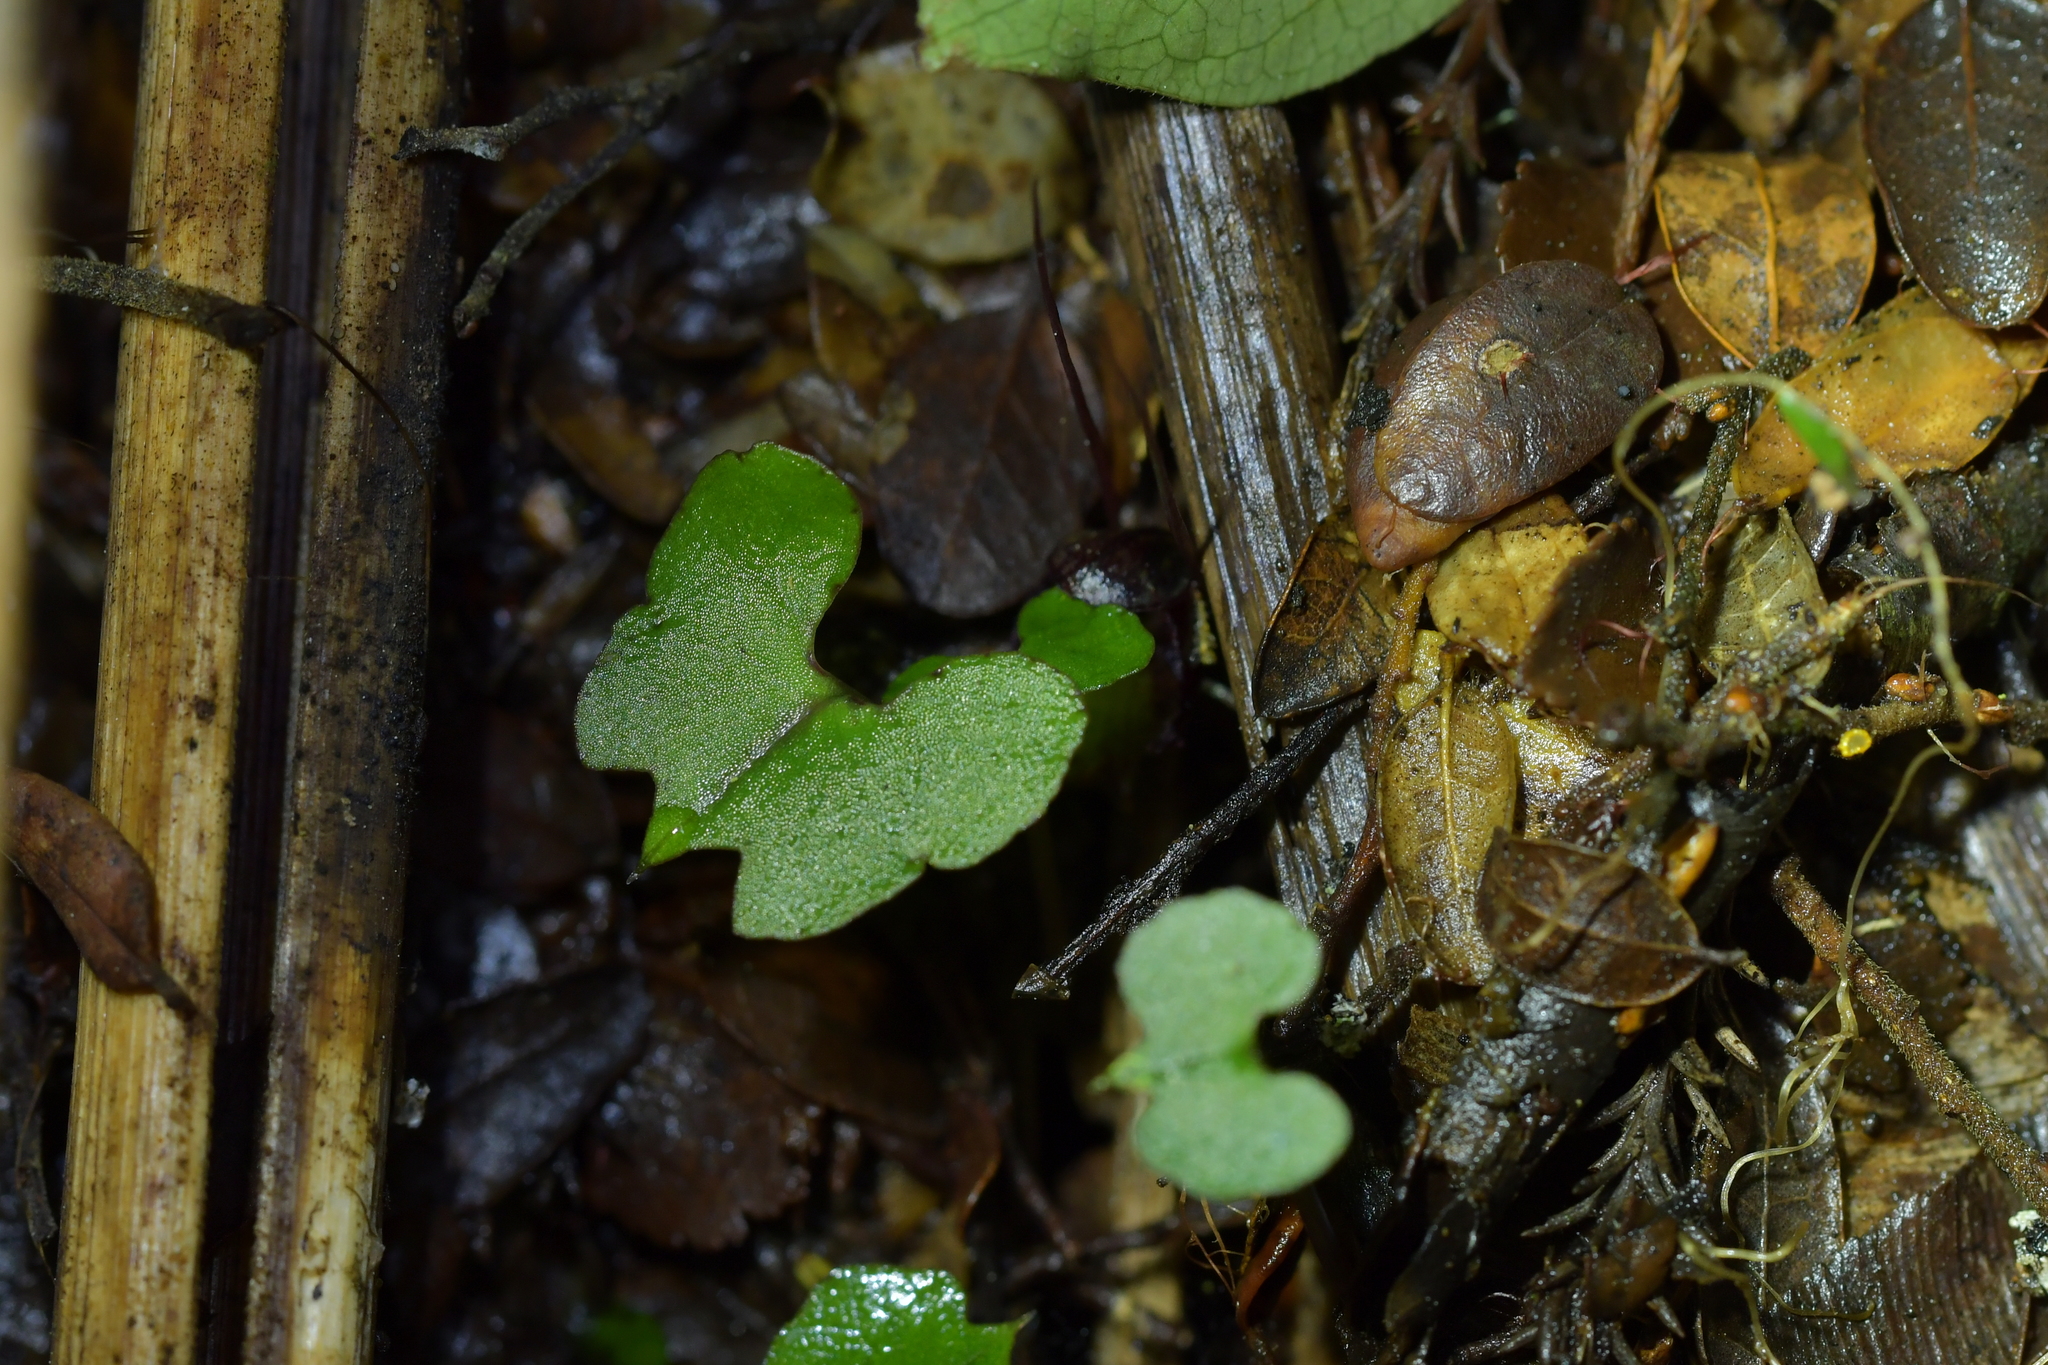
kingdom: Plantae
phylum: Tracheophyta
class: Liliopsida
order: Asparagales
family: Orchidaceae
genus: Corybas
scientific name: Corybas hypogaeus
